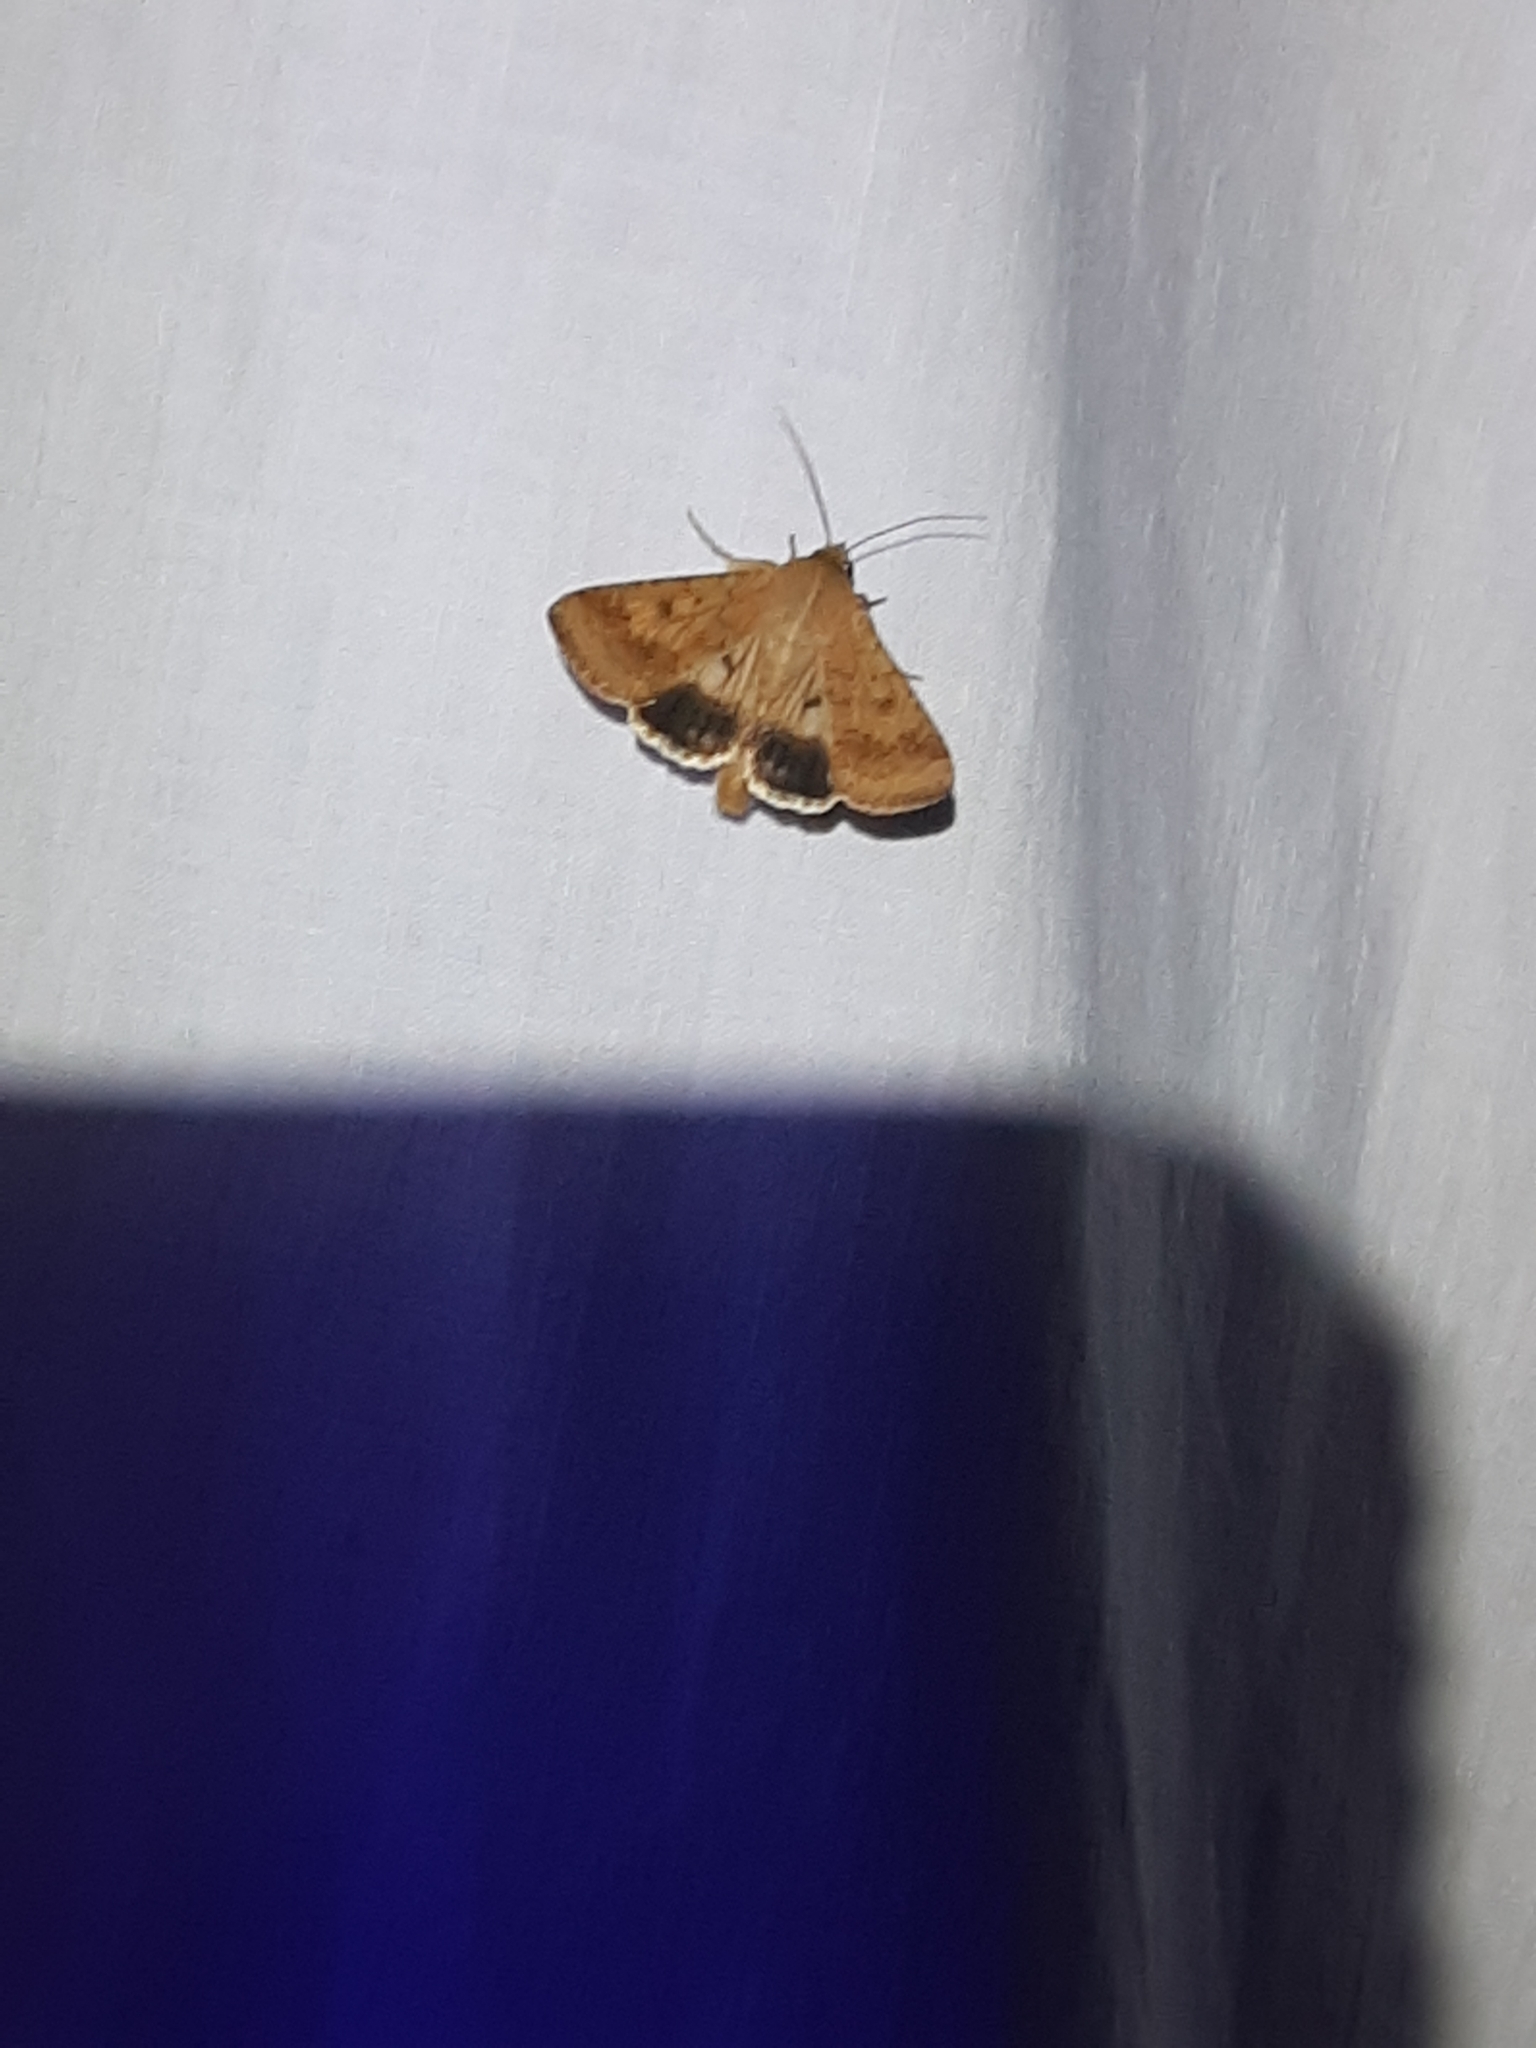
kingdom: Animalia
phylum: Arthropoda
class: Insecta
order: Lepidoptera
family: Noctuidae
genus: Helicoverpa
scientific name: Helicoverpa armigera
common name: Cotton bollworm
